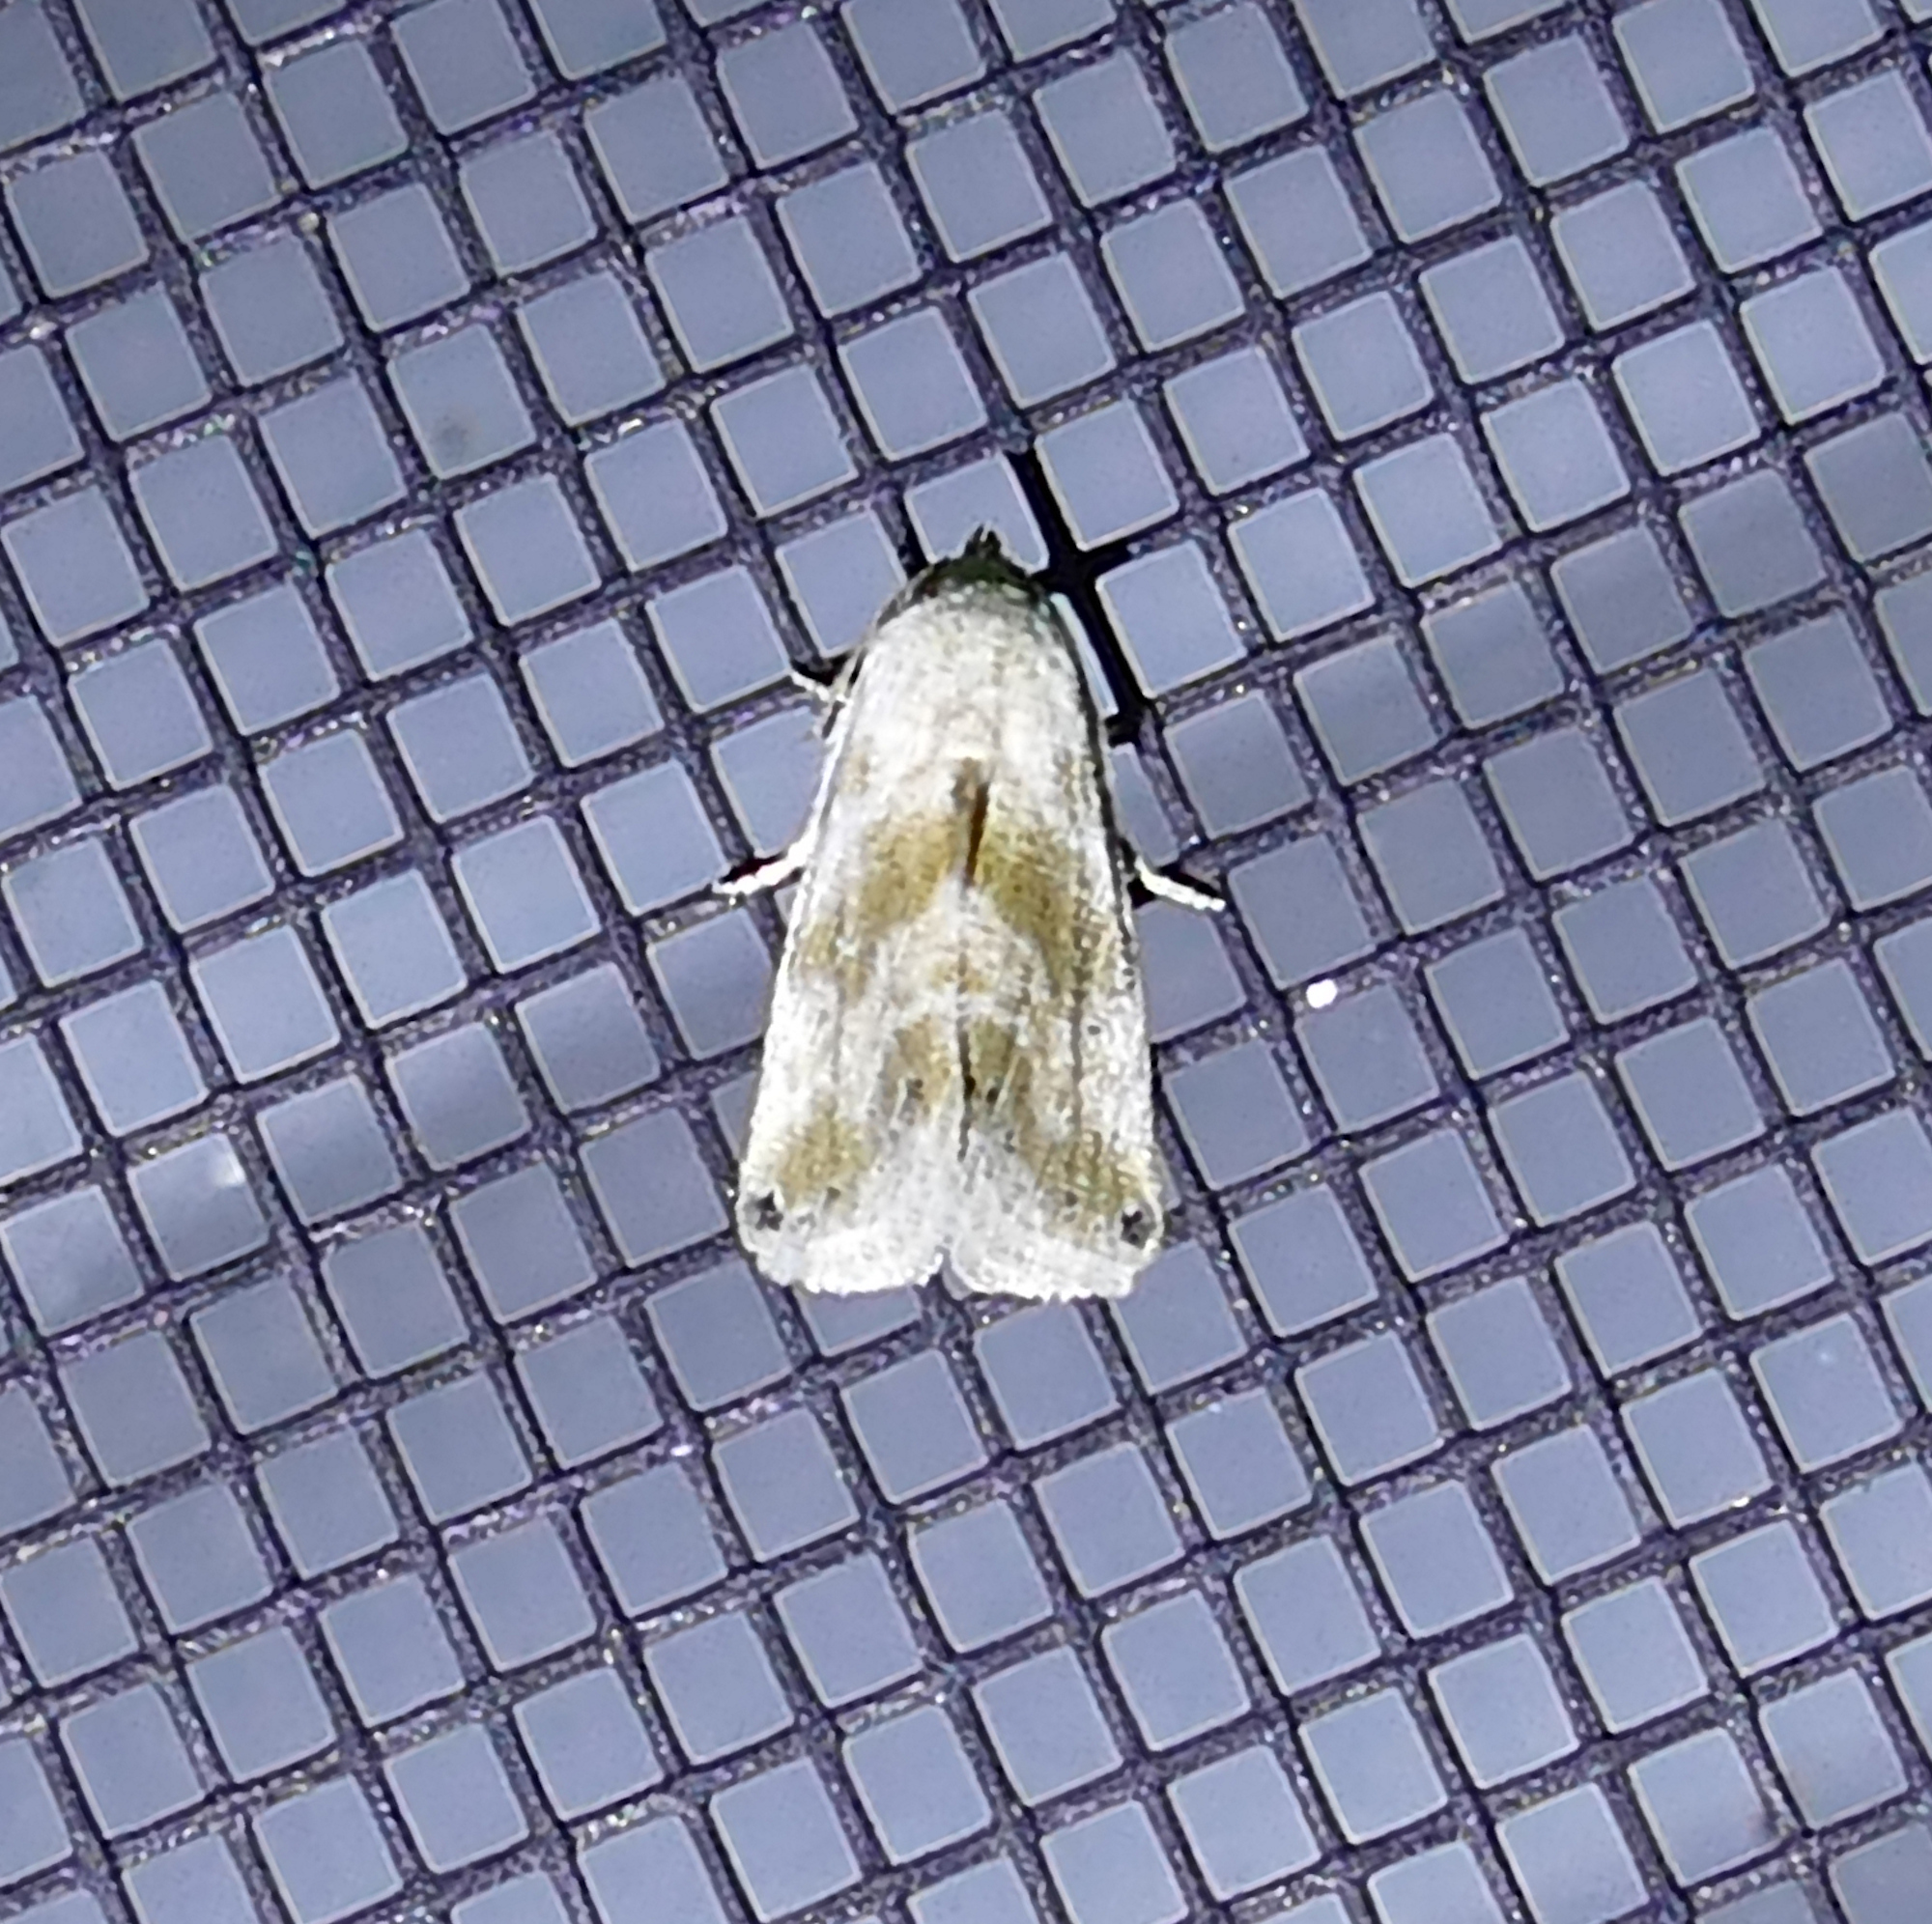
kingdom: Animalia
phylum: Arthropoda
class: Insecta
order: Lepidoptera
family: Noctuidae
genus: Eublemma
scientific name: Eublemma minima
